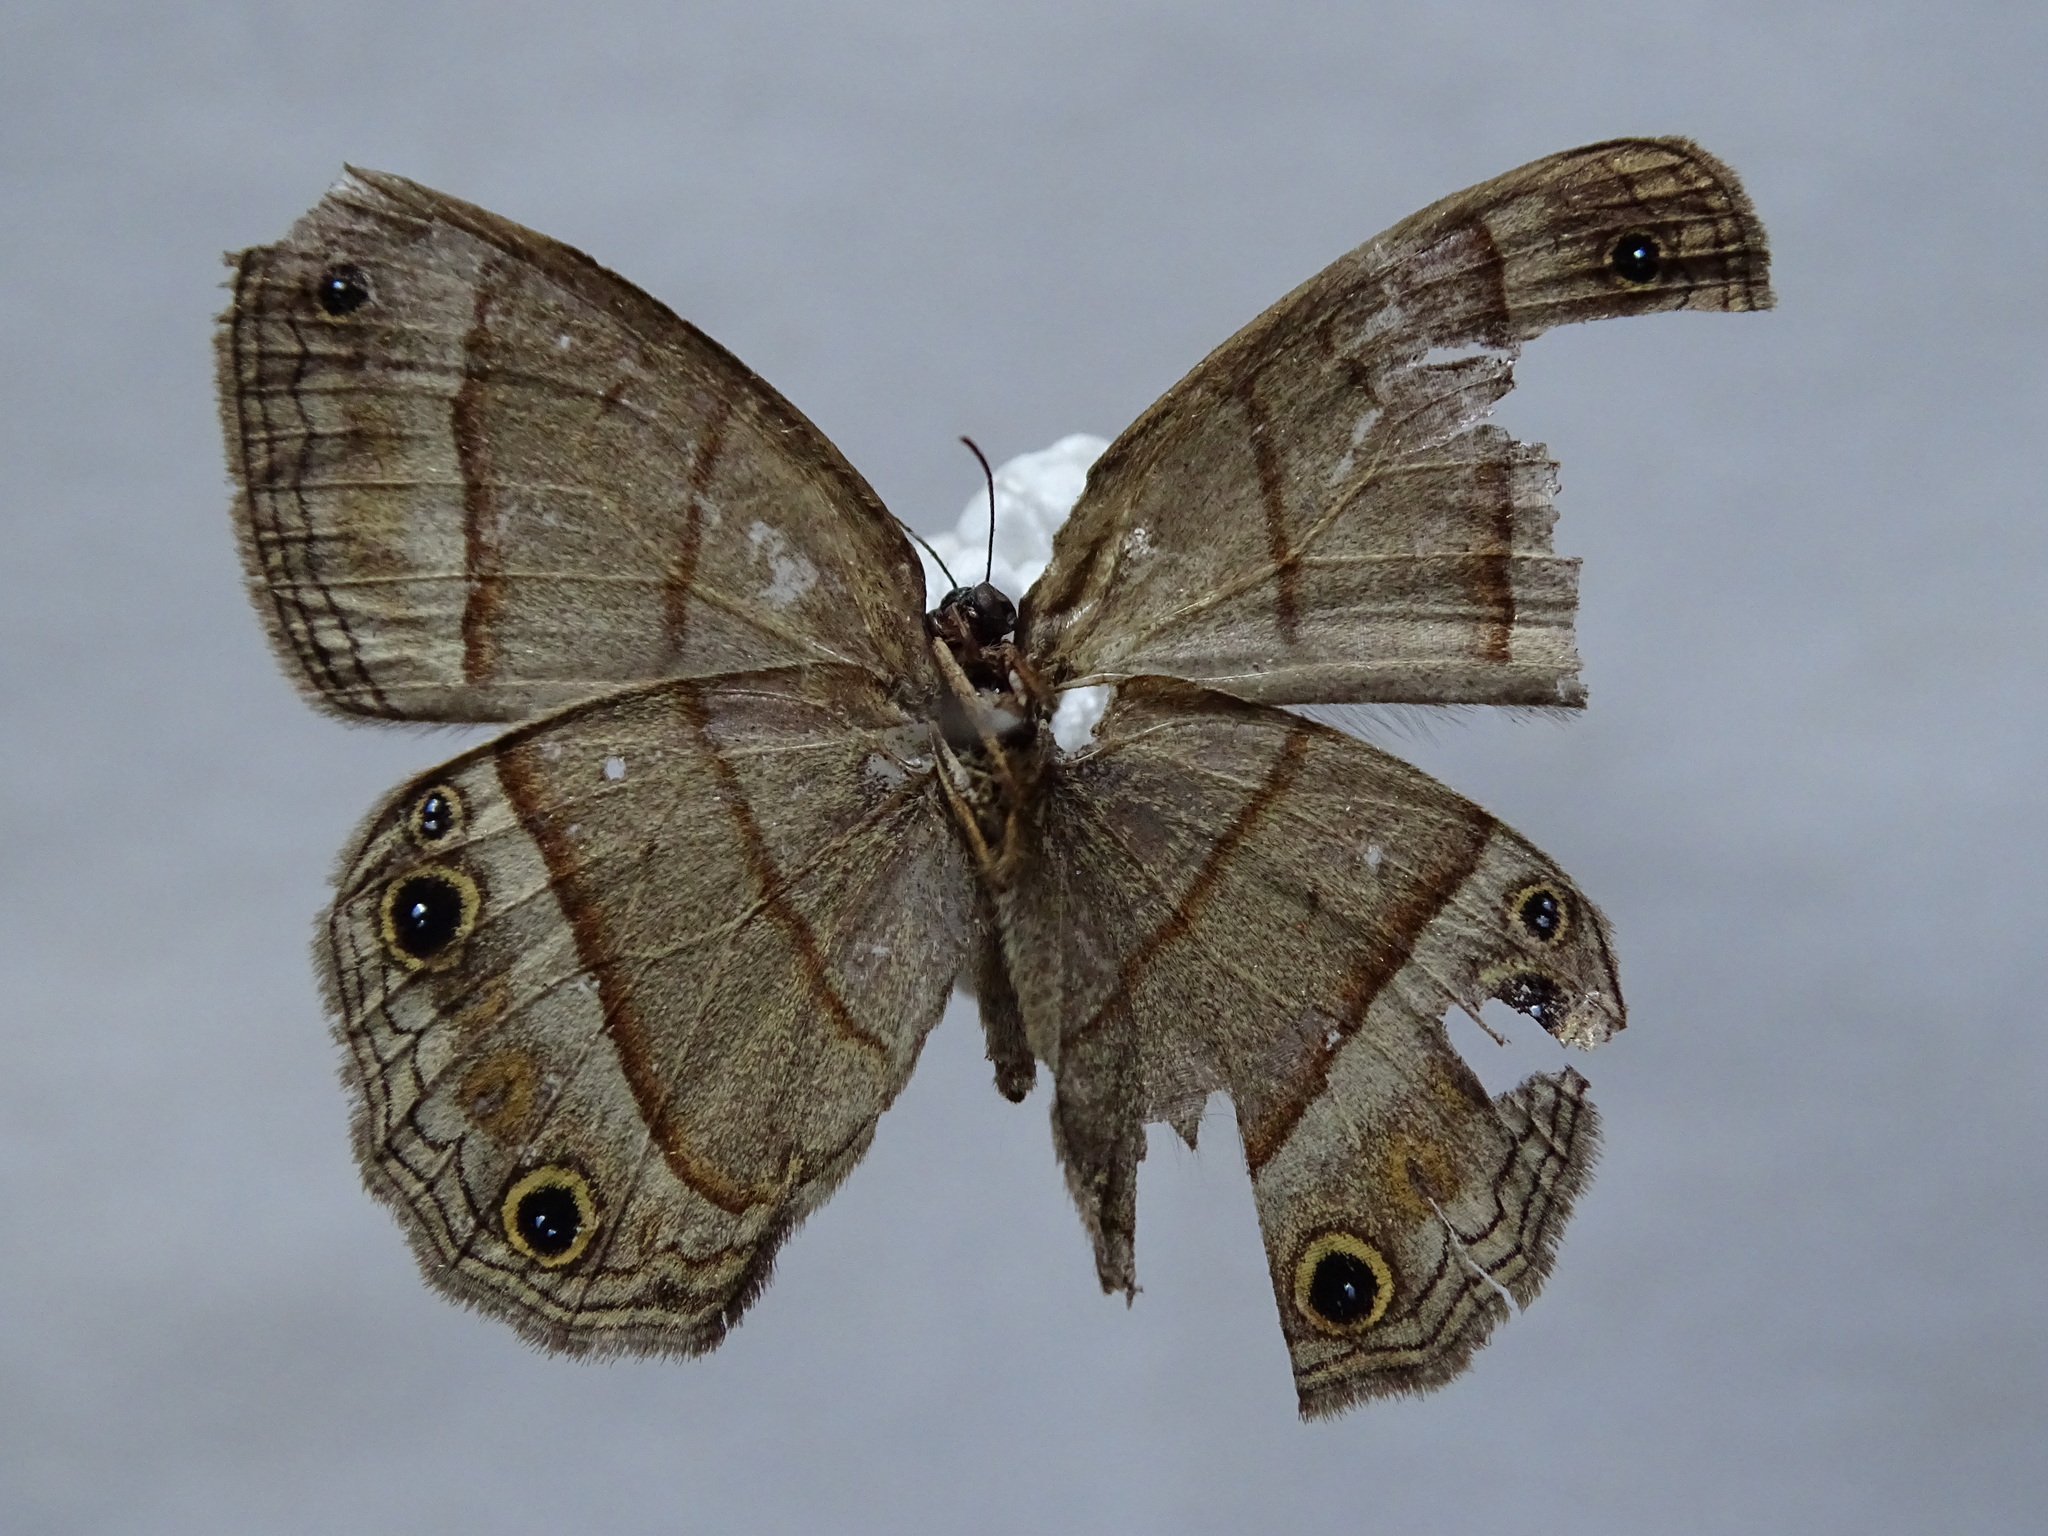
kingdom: Animalia
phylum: Arthropoda
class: Insecta
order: Lepidoptera
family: Nymphalidae
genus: Euptychia
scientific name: Euptychia Cissia pompilia
